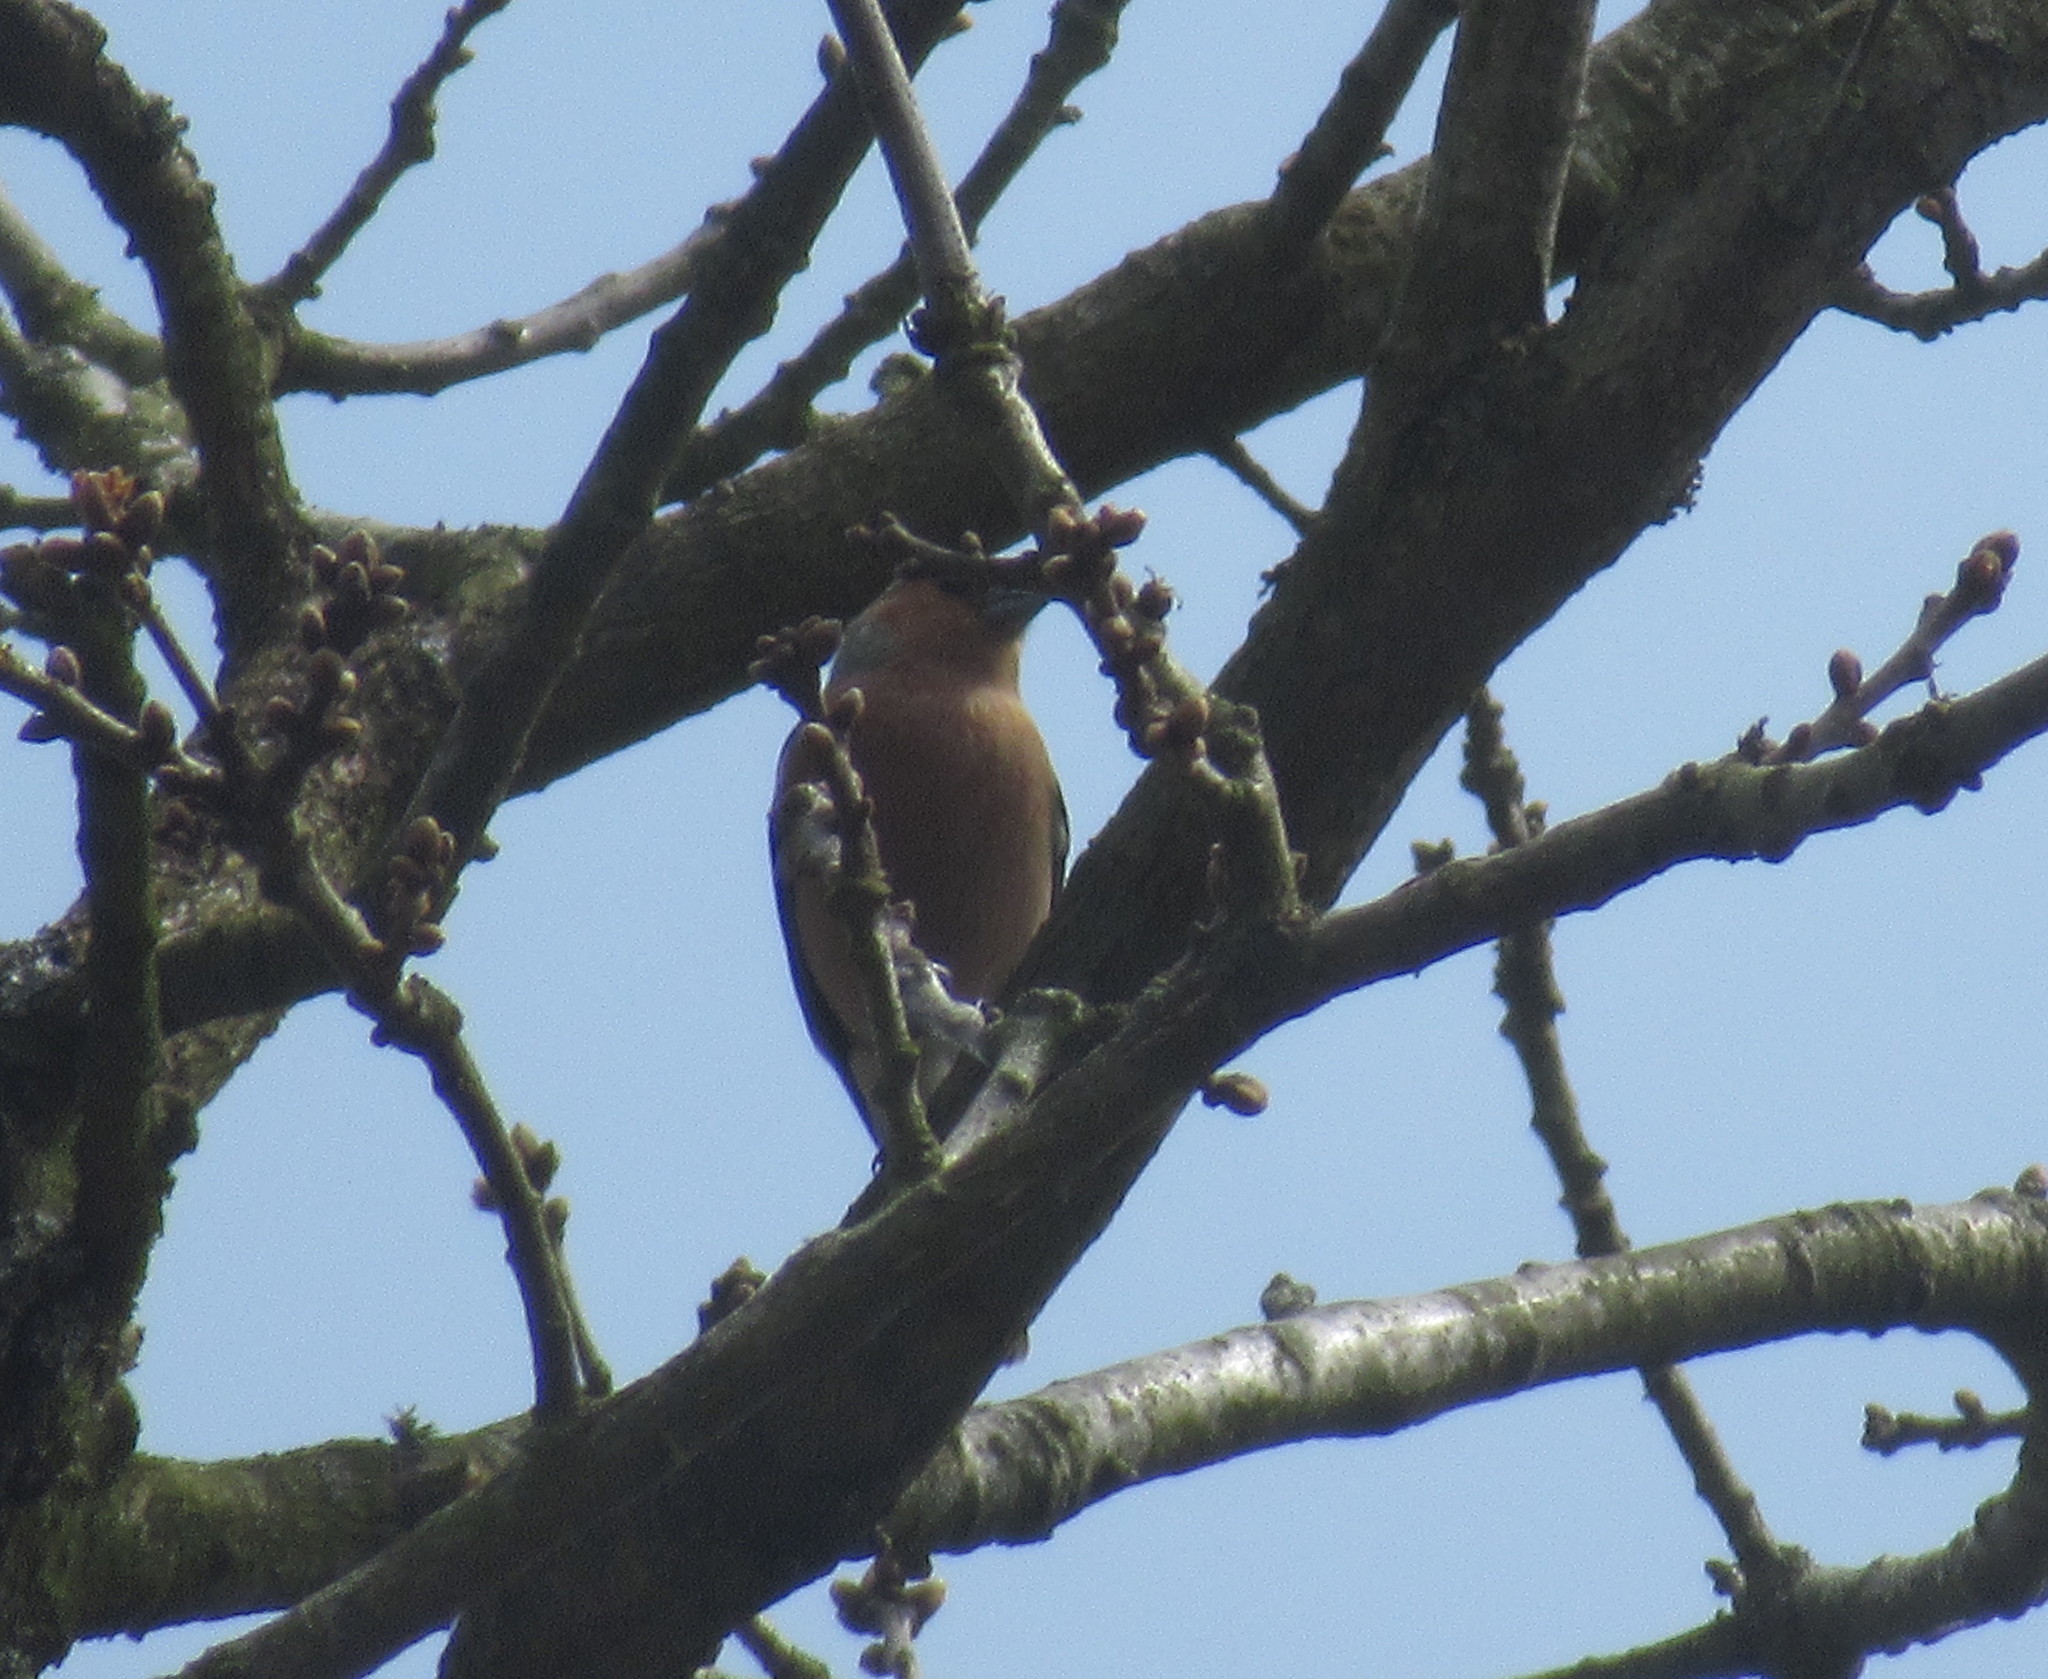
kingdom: Animalia
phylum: Chordata
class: Aves
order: Passeriformes
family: Fringillidae
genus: Fringilla
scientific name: Fringilla coelebs
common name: Common chaffinch
